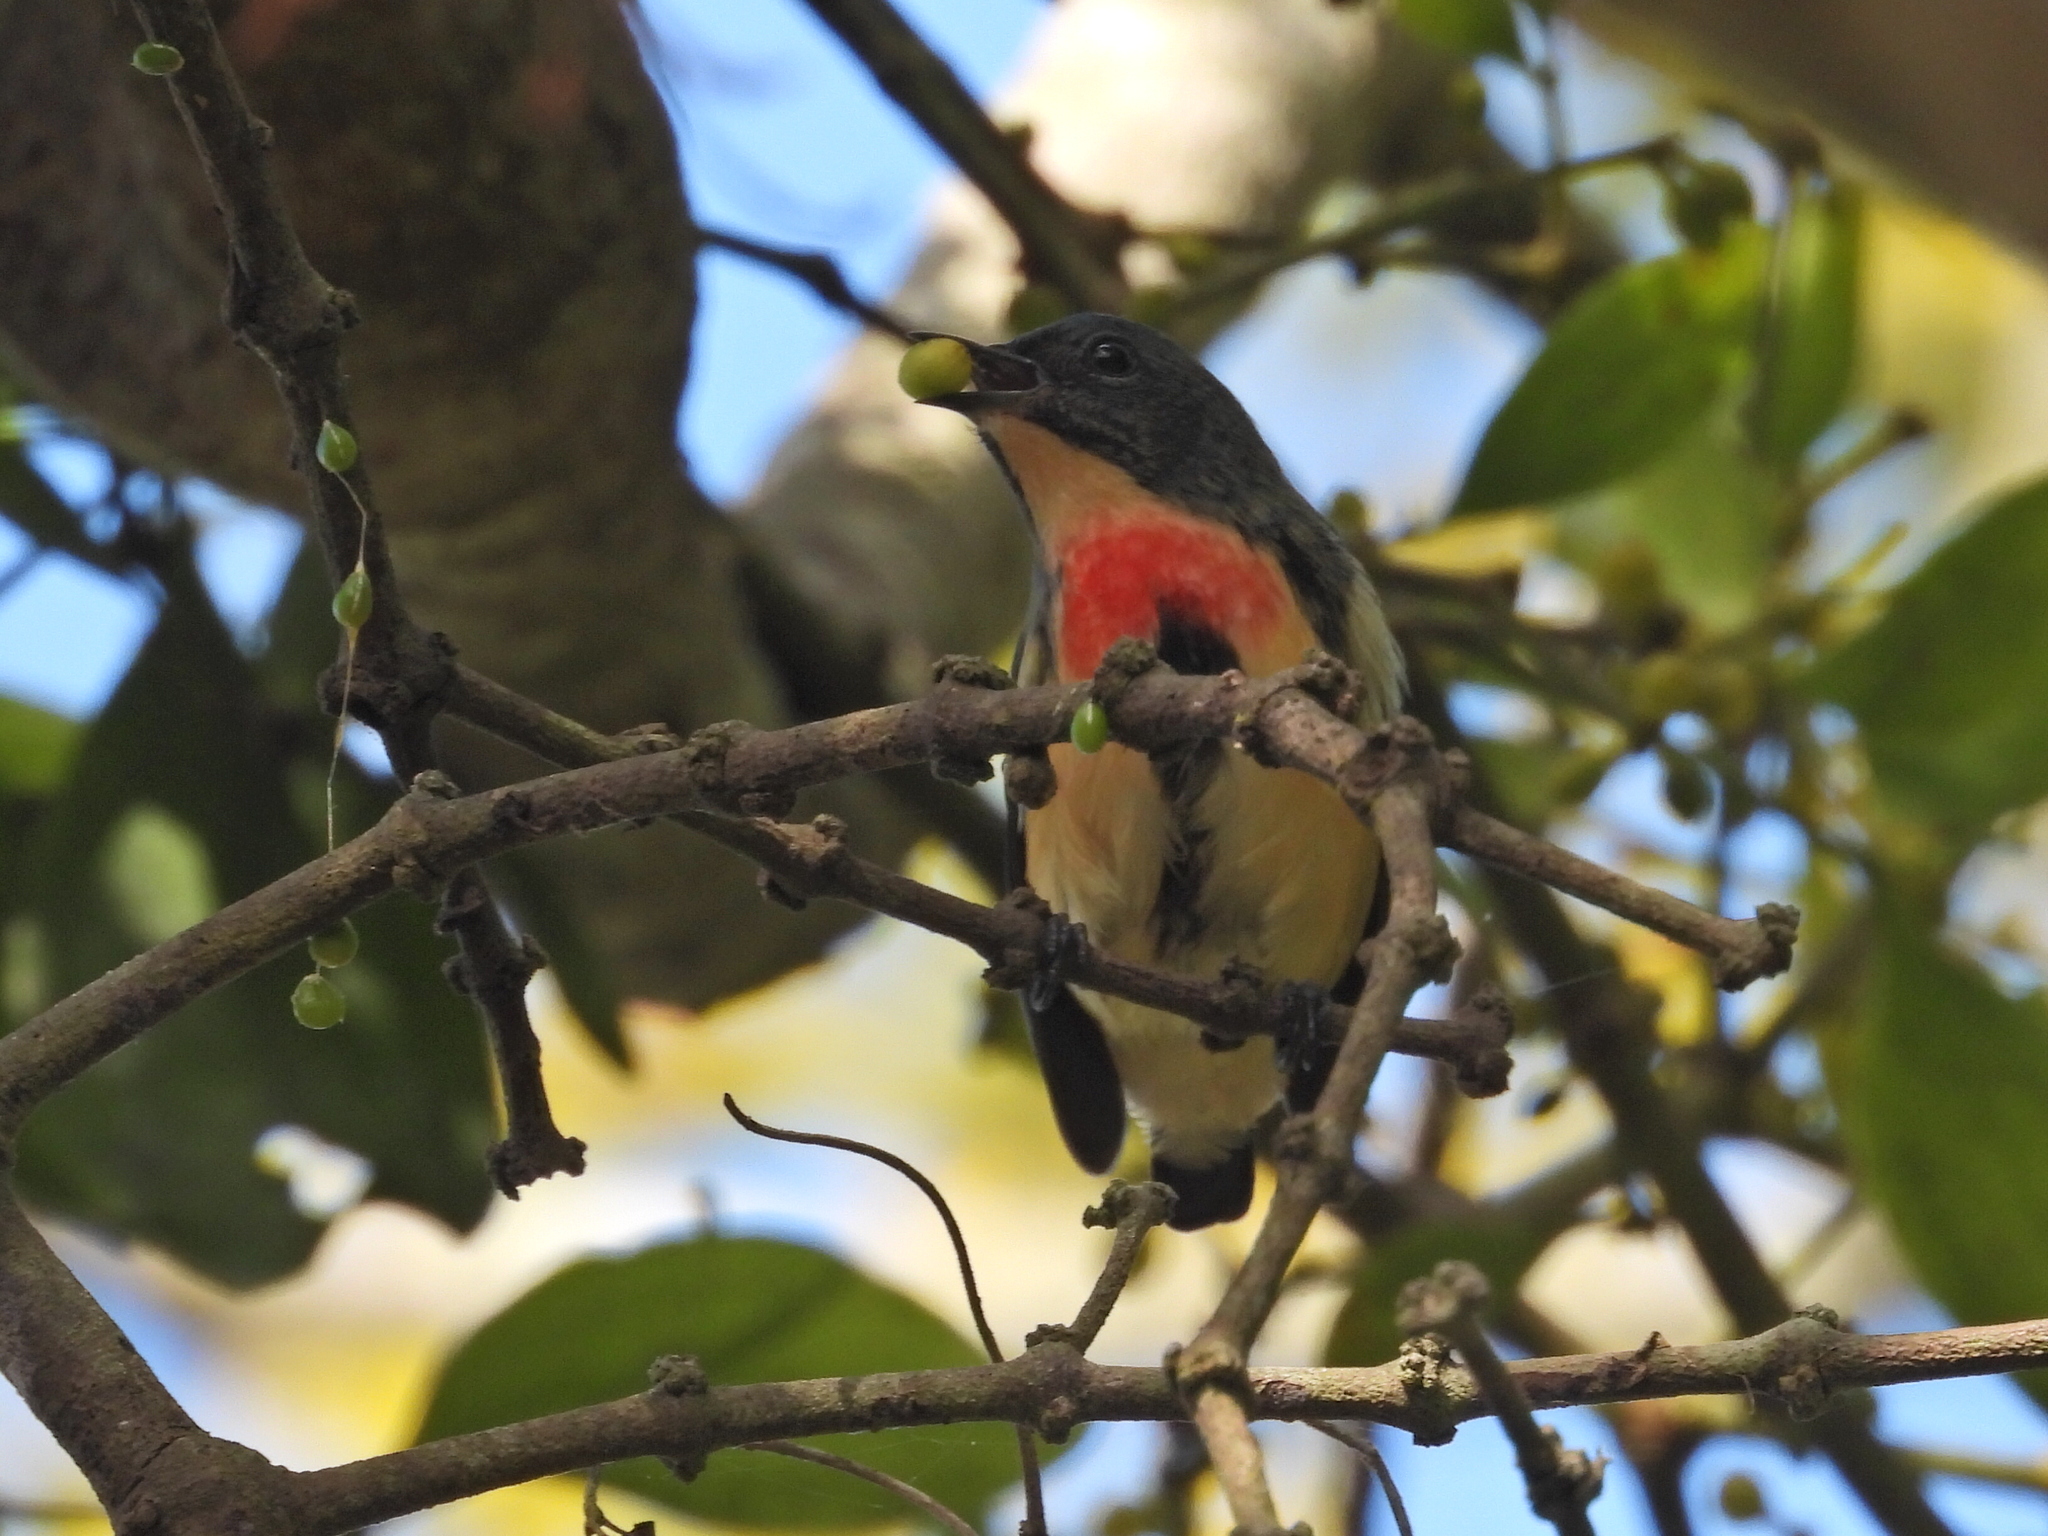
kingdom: Animalia
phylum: Chordata
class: Aves
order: Passeriformes
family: Dicaeidae
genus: Dicaeum
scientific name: Dicaeum ignipectus
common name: Fire-breasted flowerpecker
